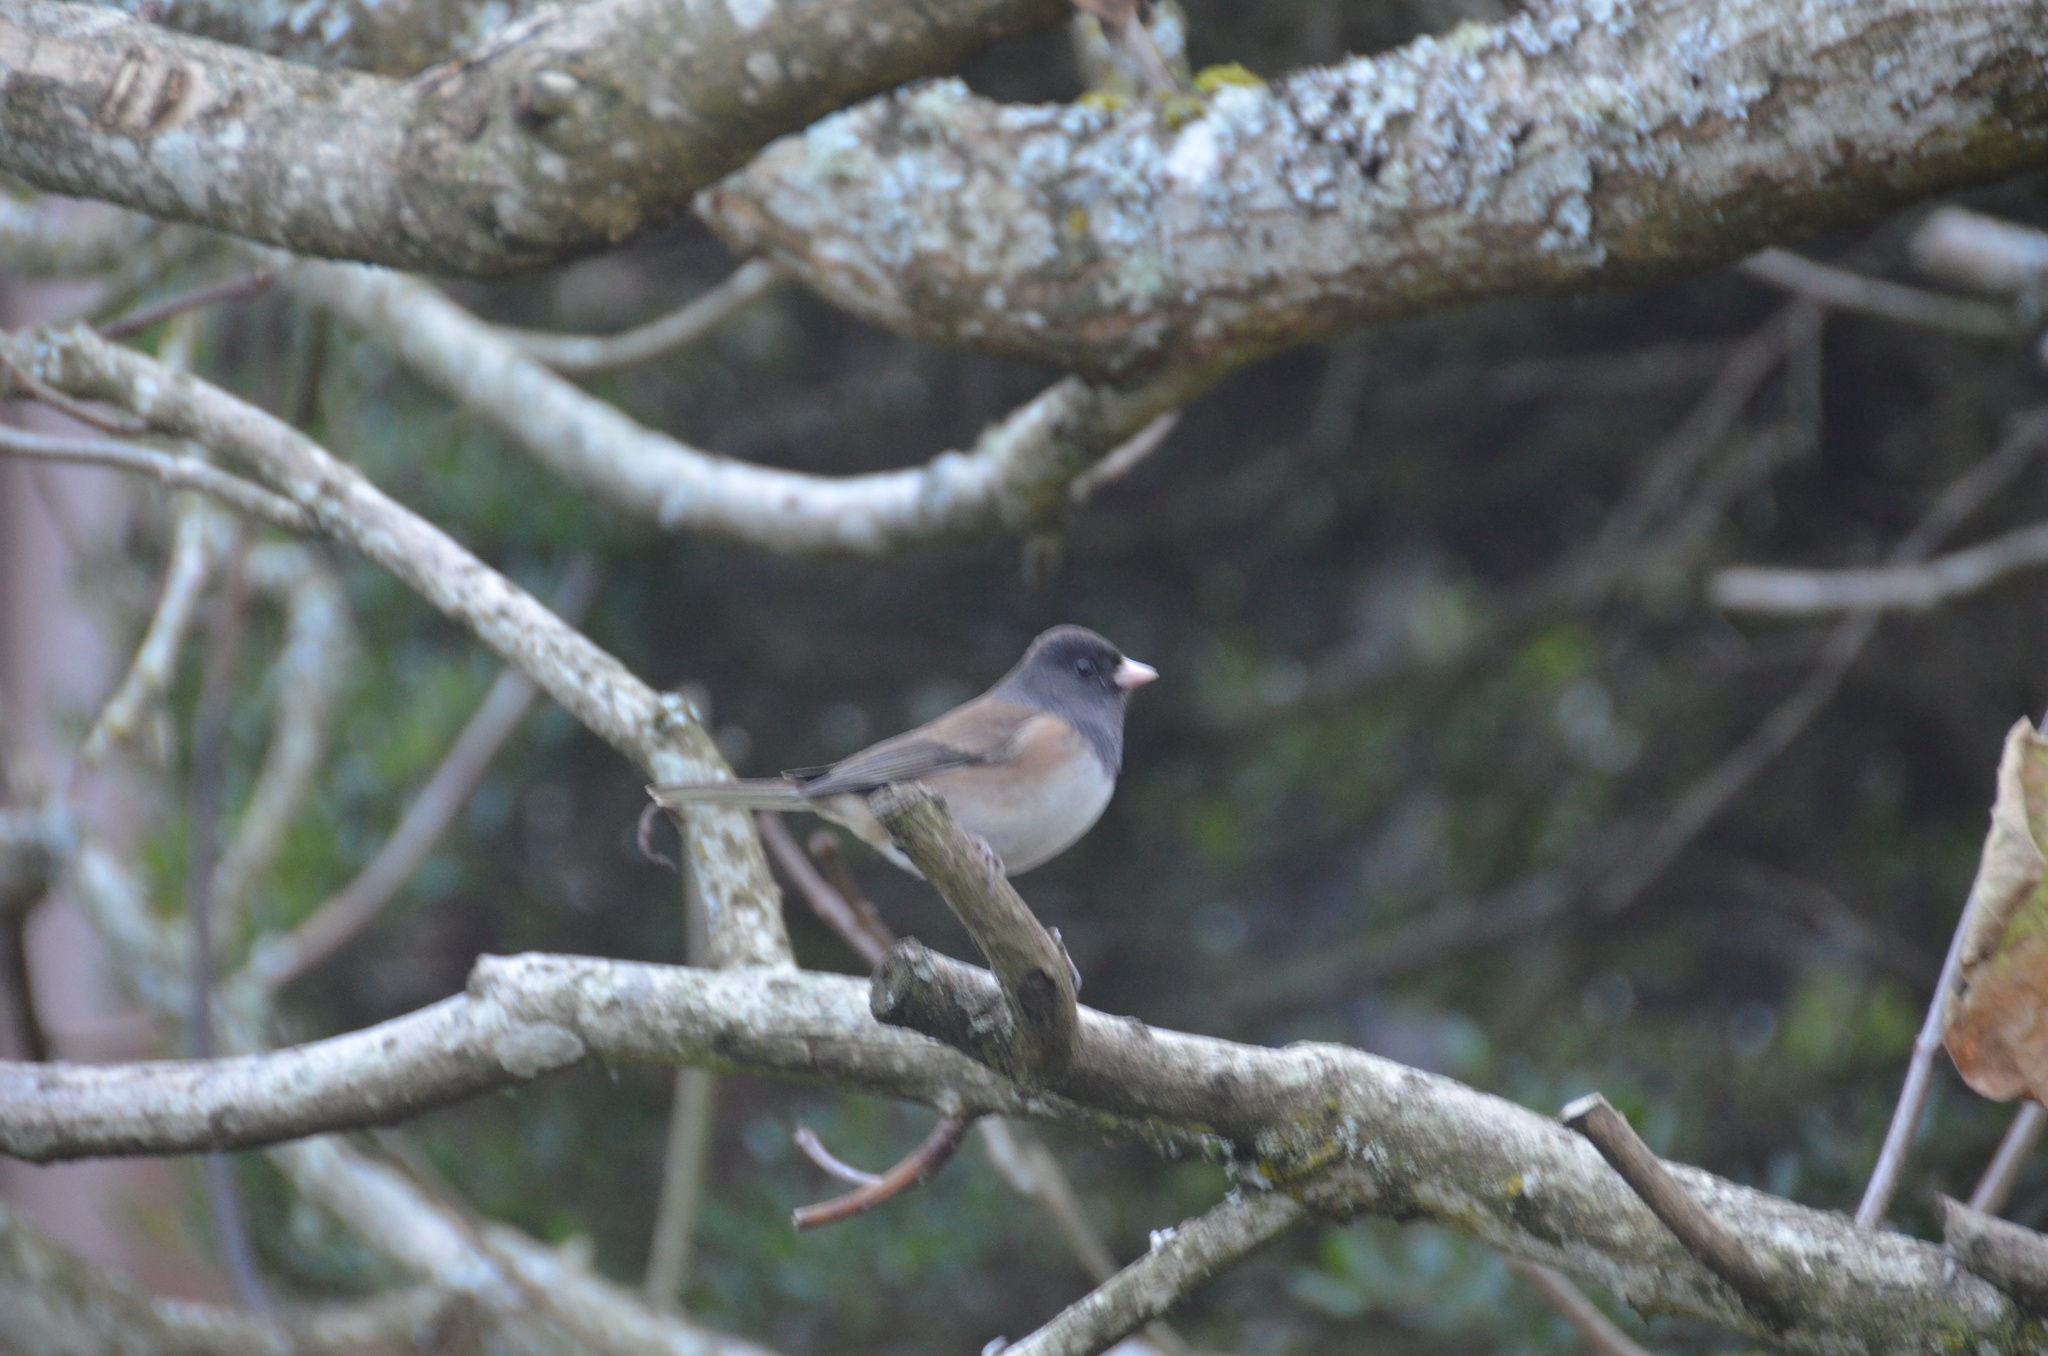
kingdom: Animalia
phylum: Chordata
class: Aves
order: Passeriformes
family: Passerellidae
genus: Junco
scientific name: Junco hyemalis
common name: Dark-eyed junco
